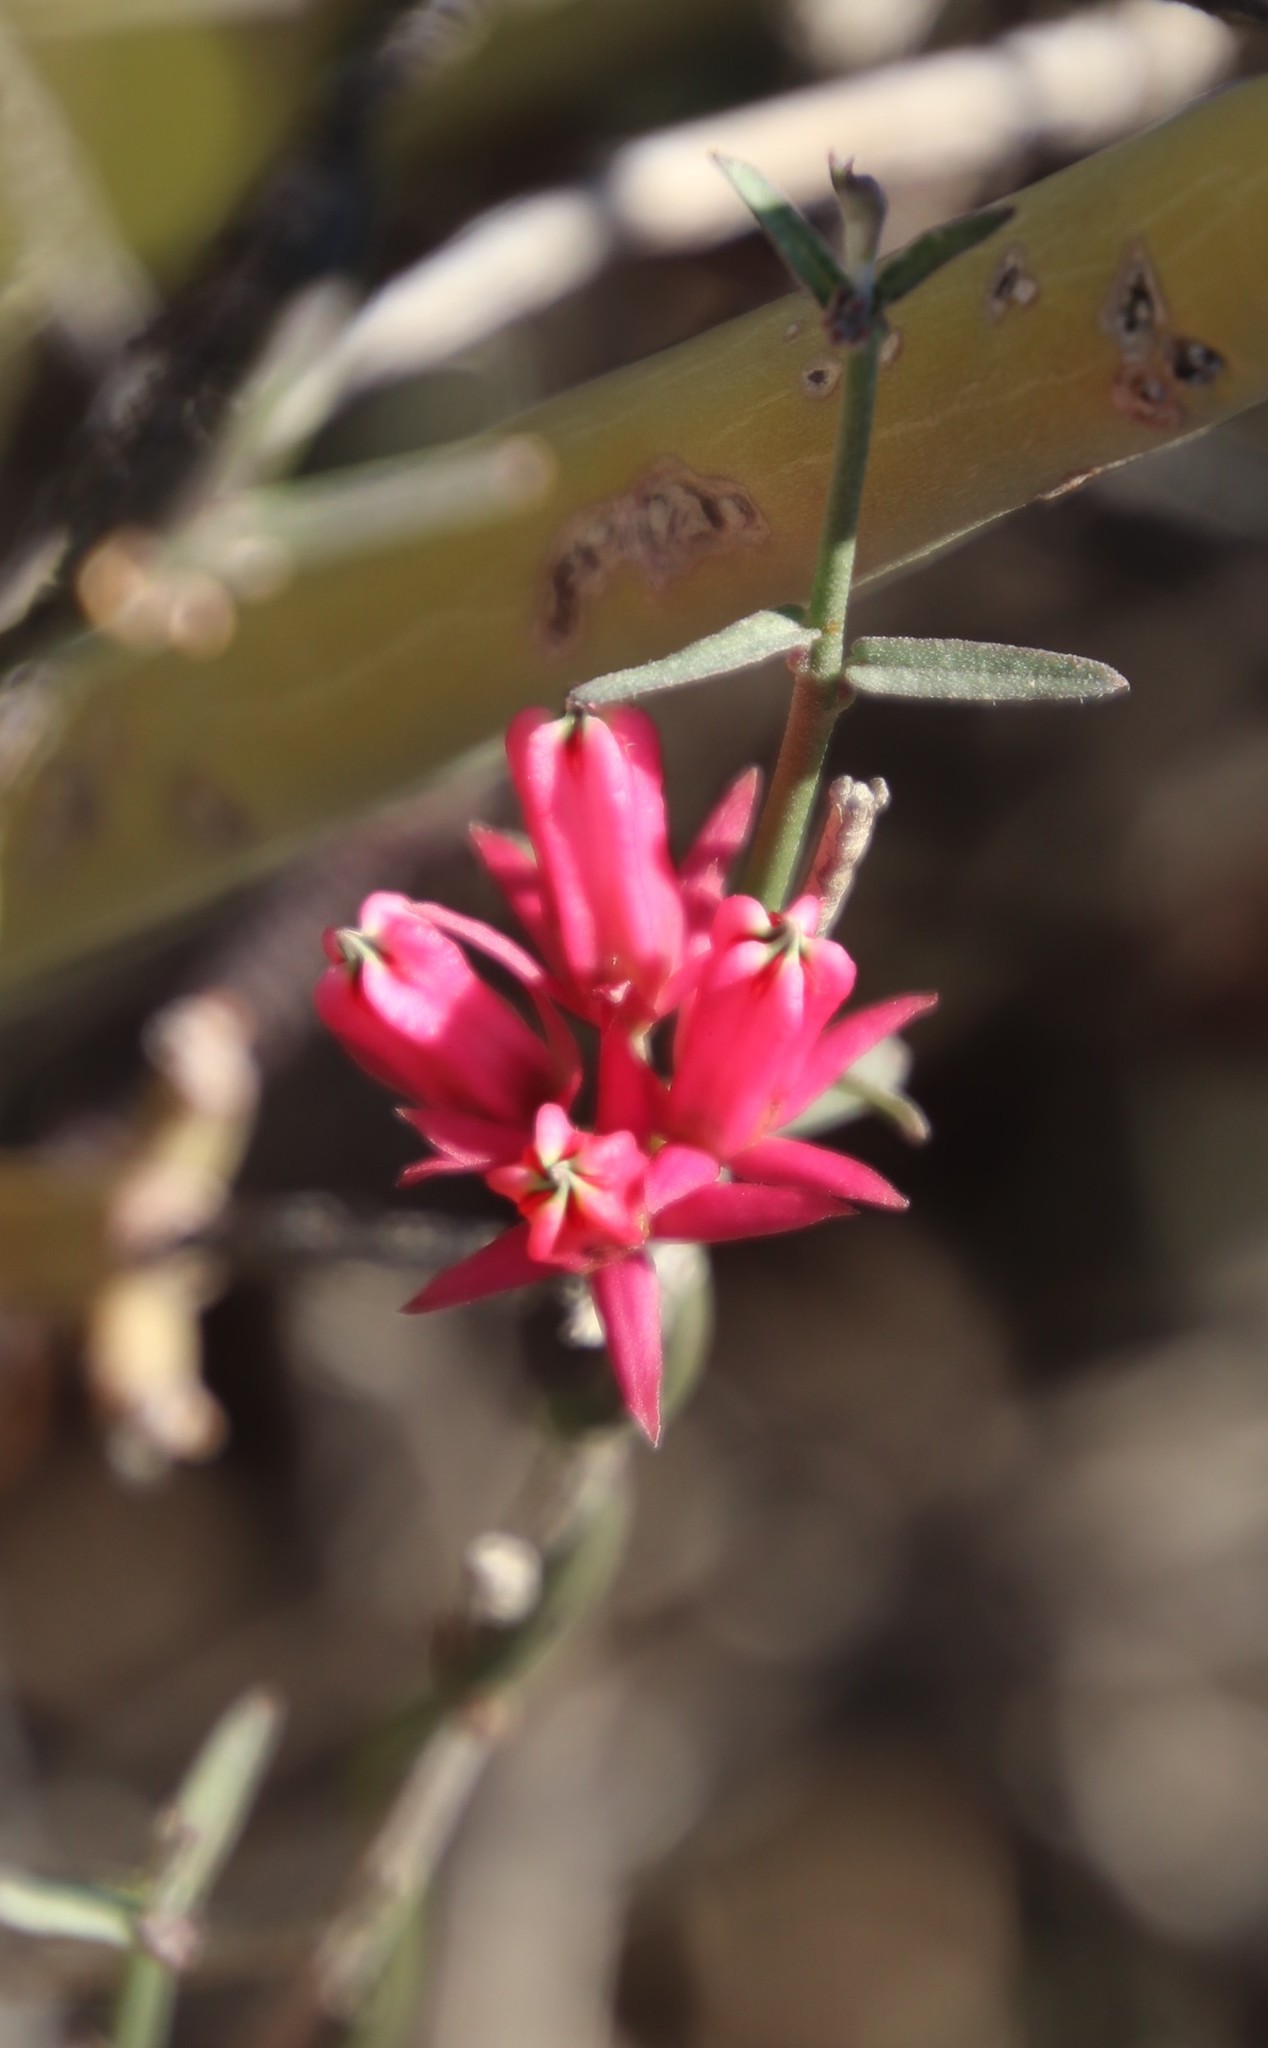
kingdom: Plantae
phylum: Tracheophyta
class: Magnoliopsida
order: Gentianales
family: Apocynaceae
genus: Microloma
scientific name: Microloma sagittatum
